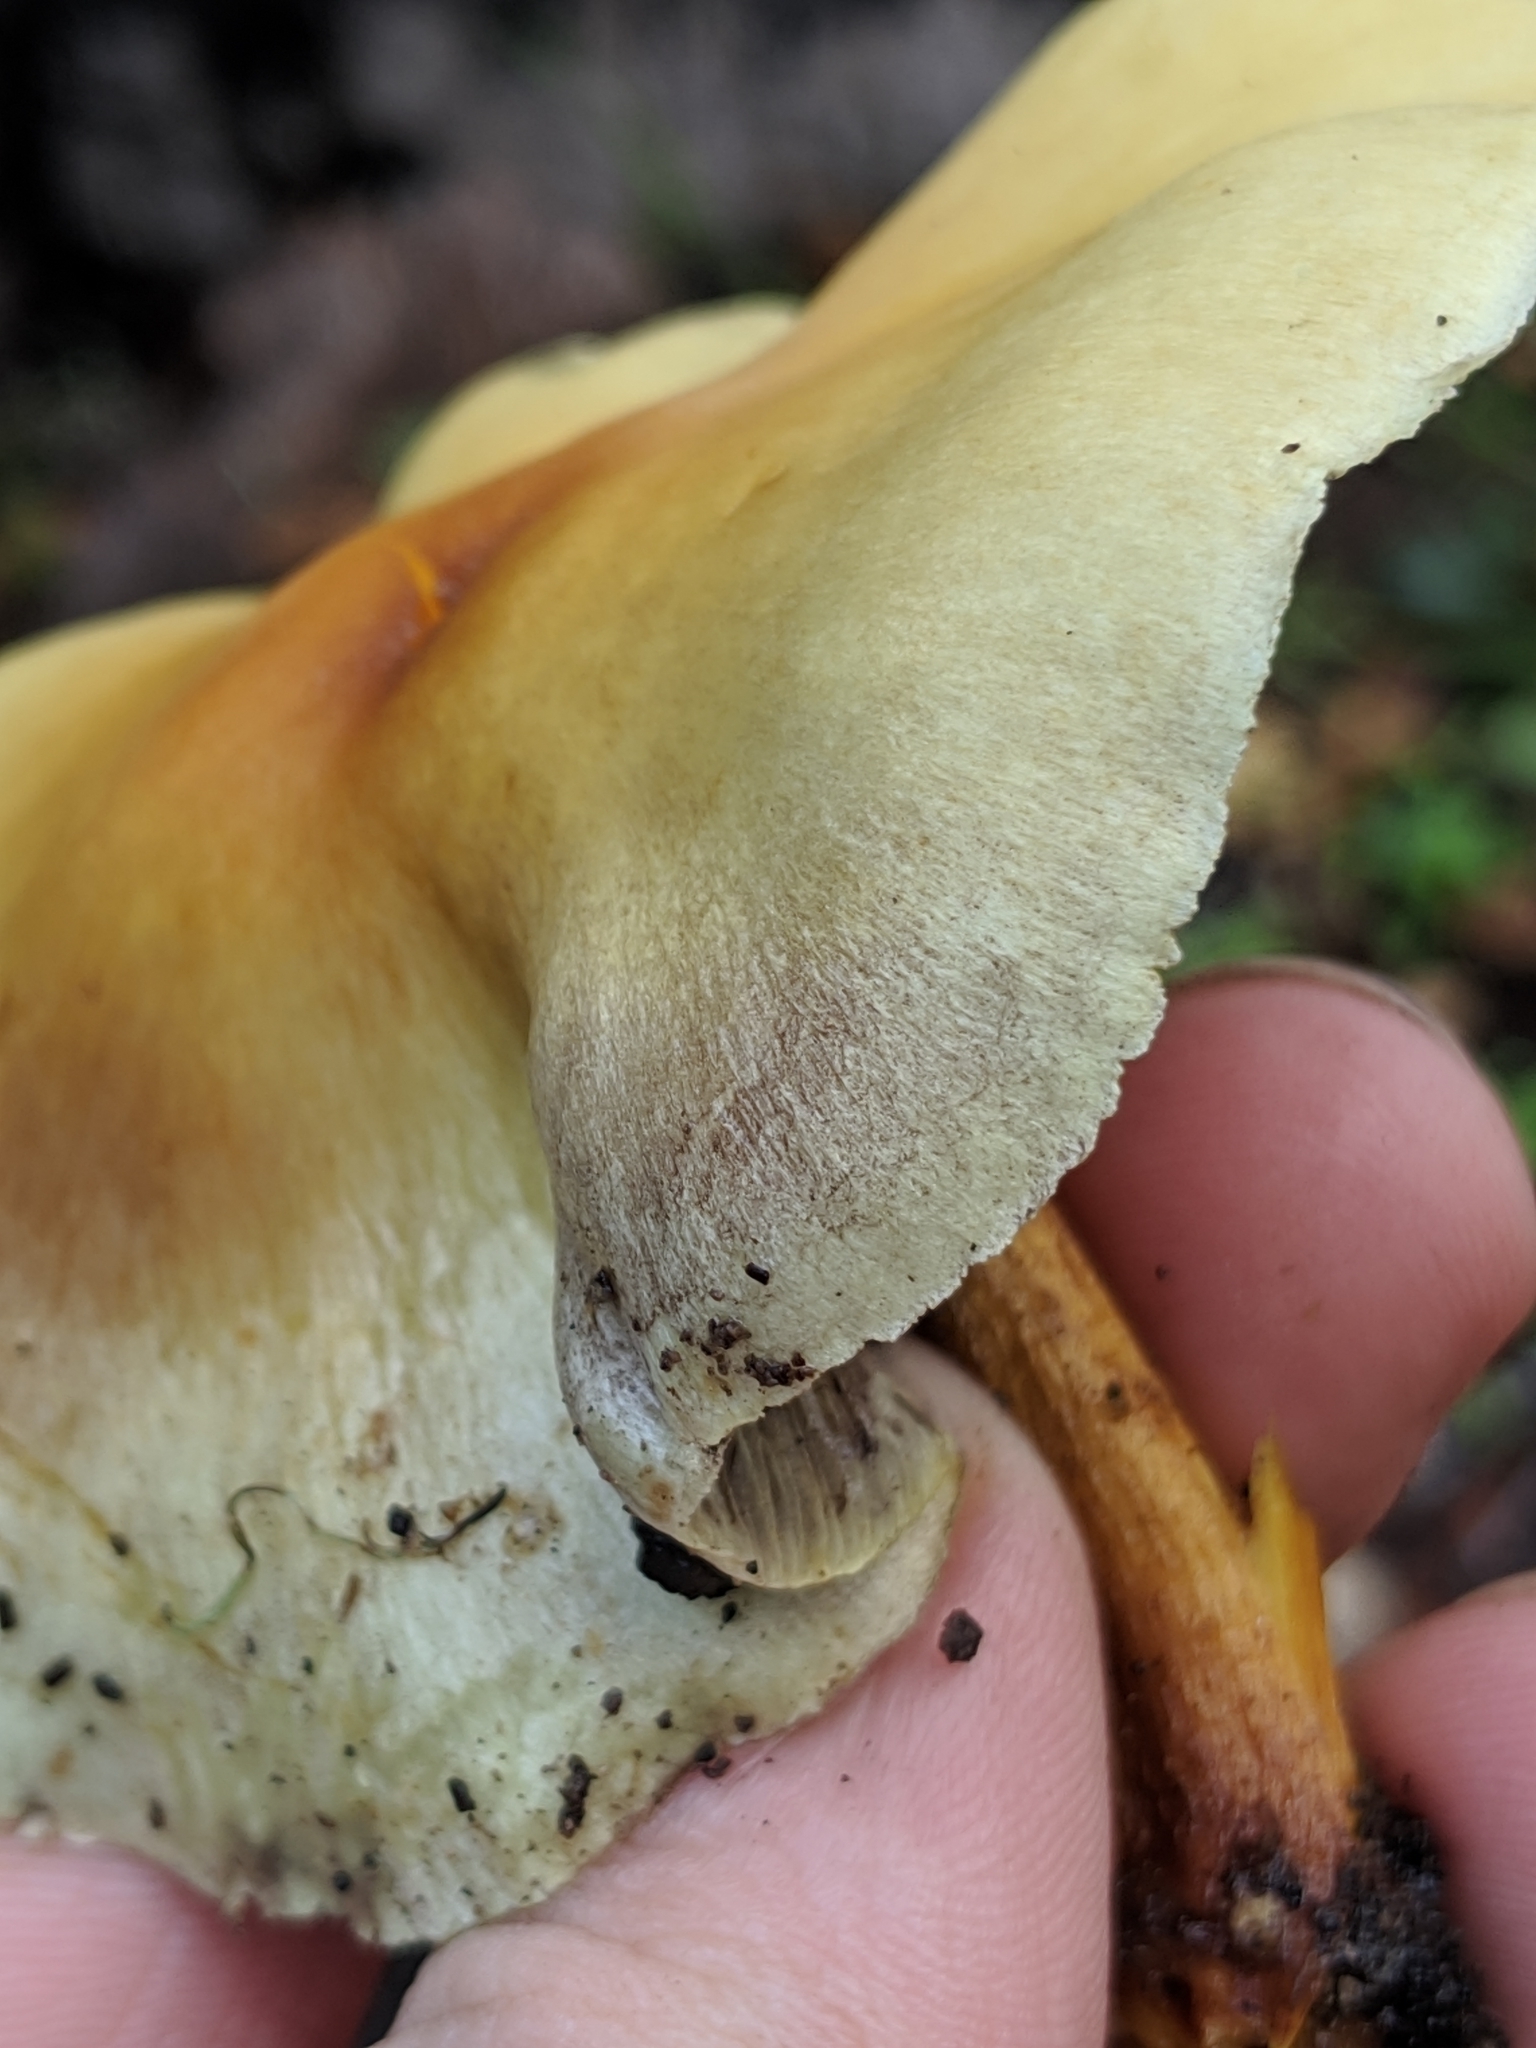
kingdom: Fungi
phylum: Basidiomycota
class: Agaricomycetes
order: Agaricales
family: Strophariaceae
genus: Hypholoma
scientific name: Hypholoma fasciculare
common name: Sulphur tuft
